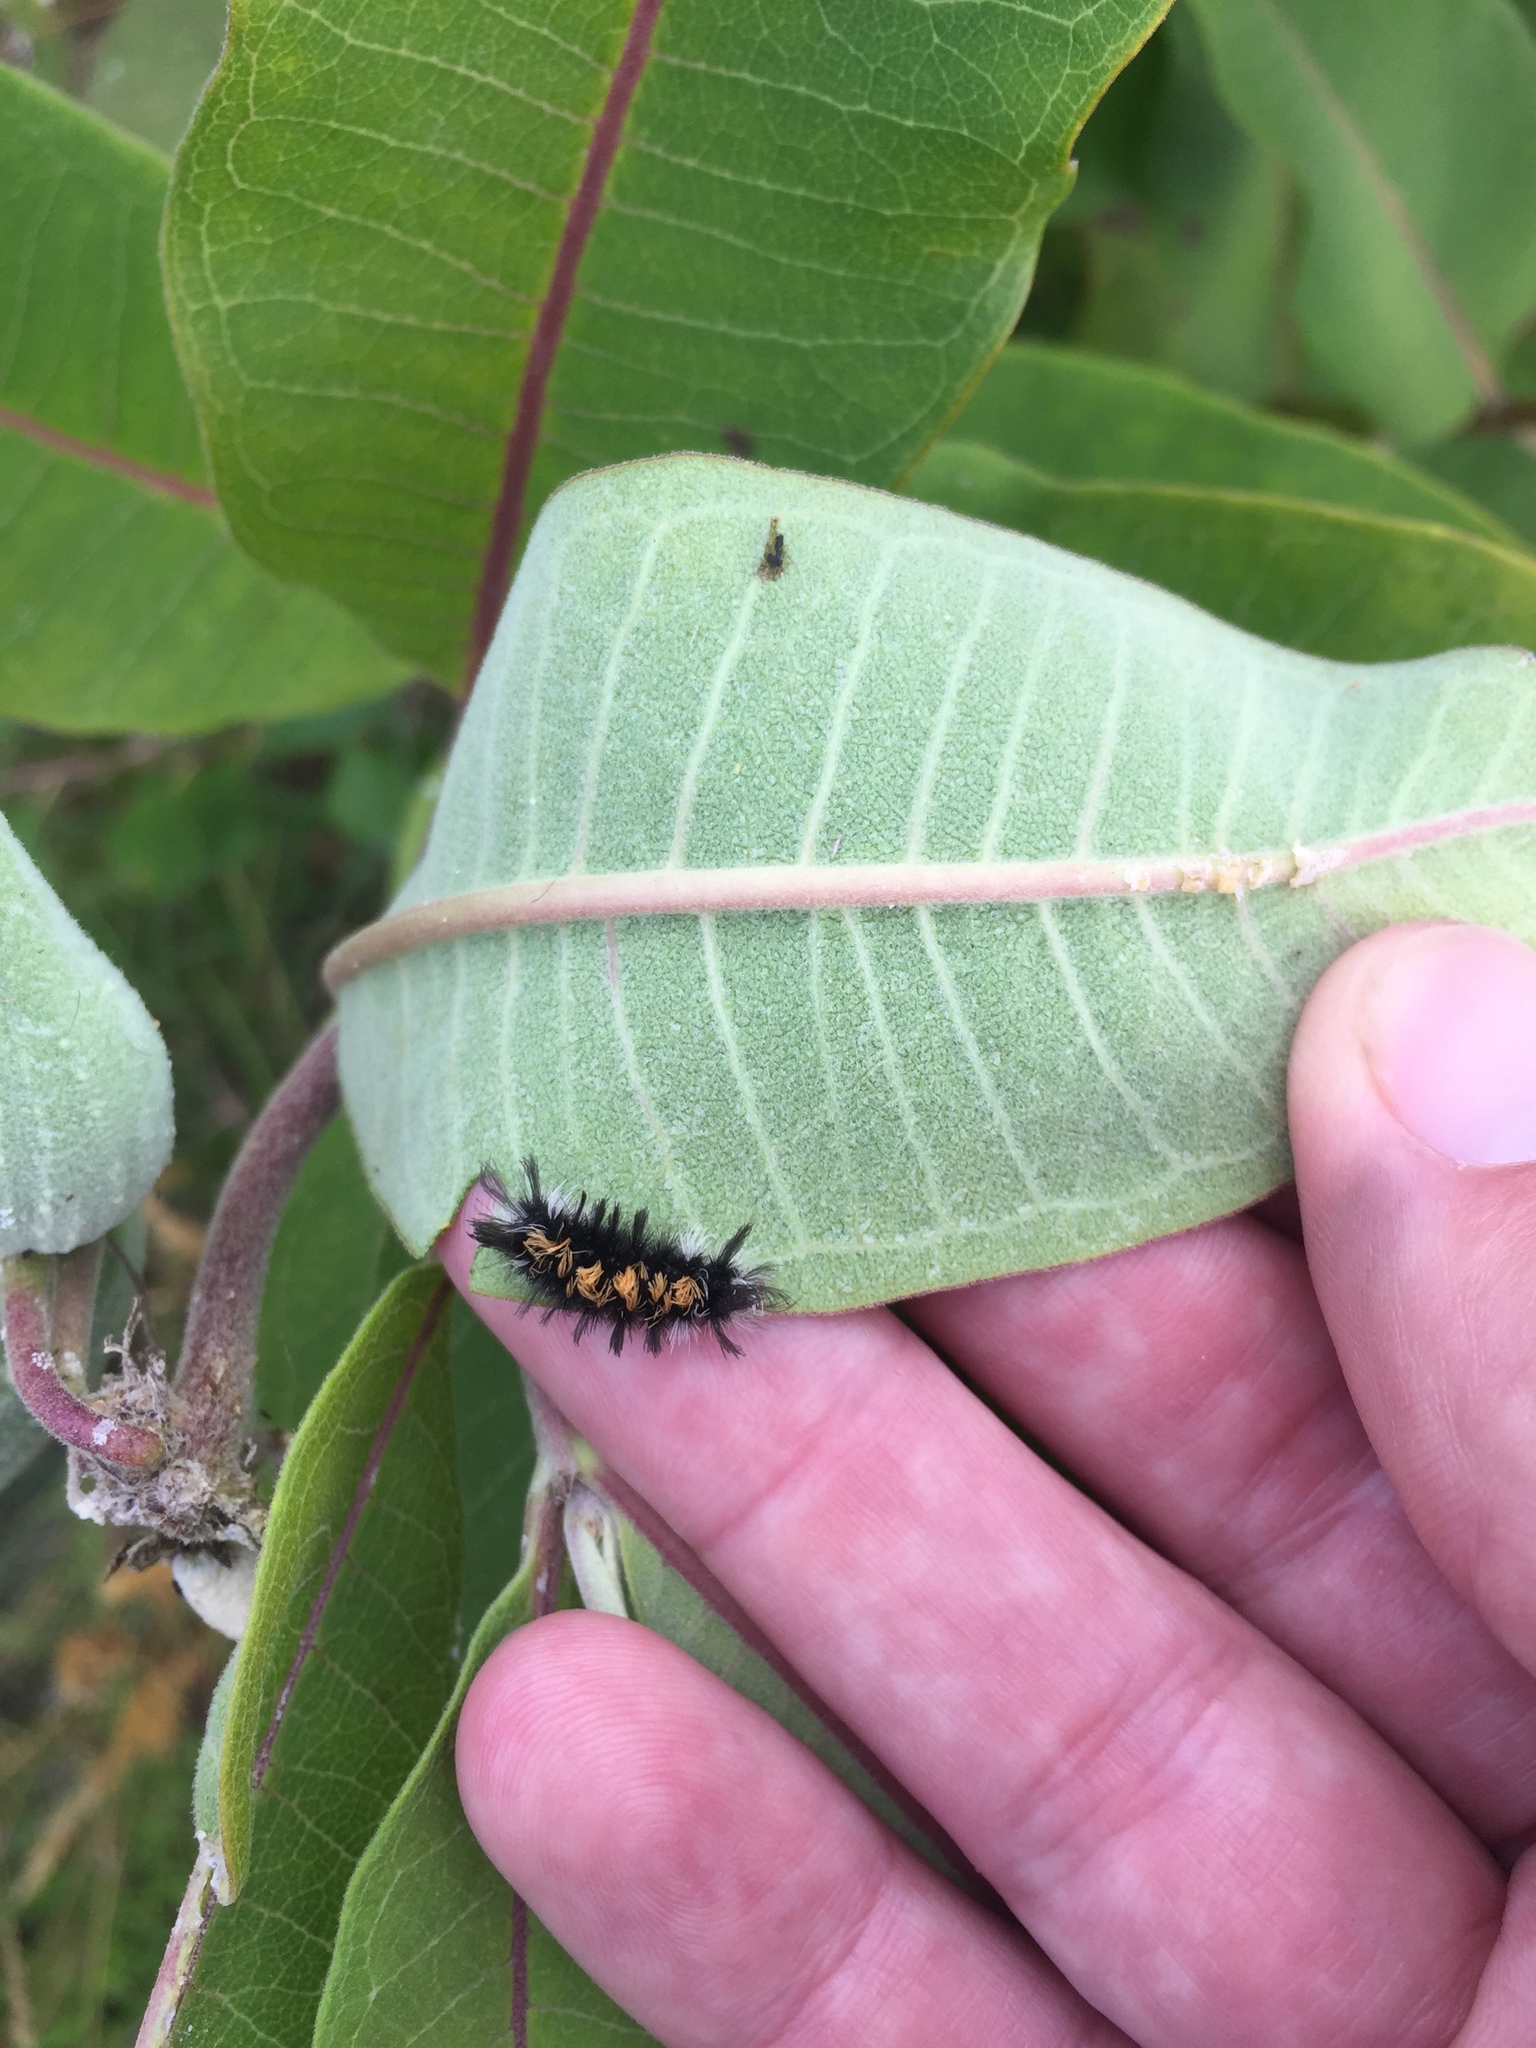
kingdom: Animalia
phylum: Arthropoda
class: Insecta
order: Lepidoptera
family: Erebidae
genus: Euchaetes
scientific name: Euchaetes egle
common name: Milkweed tussock moth
